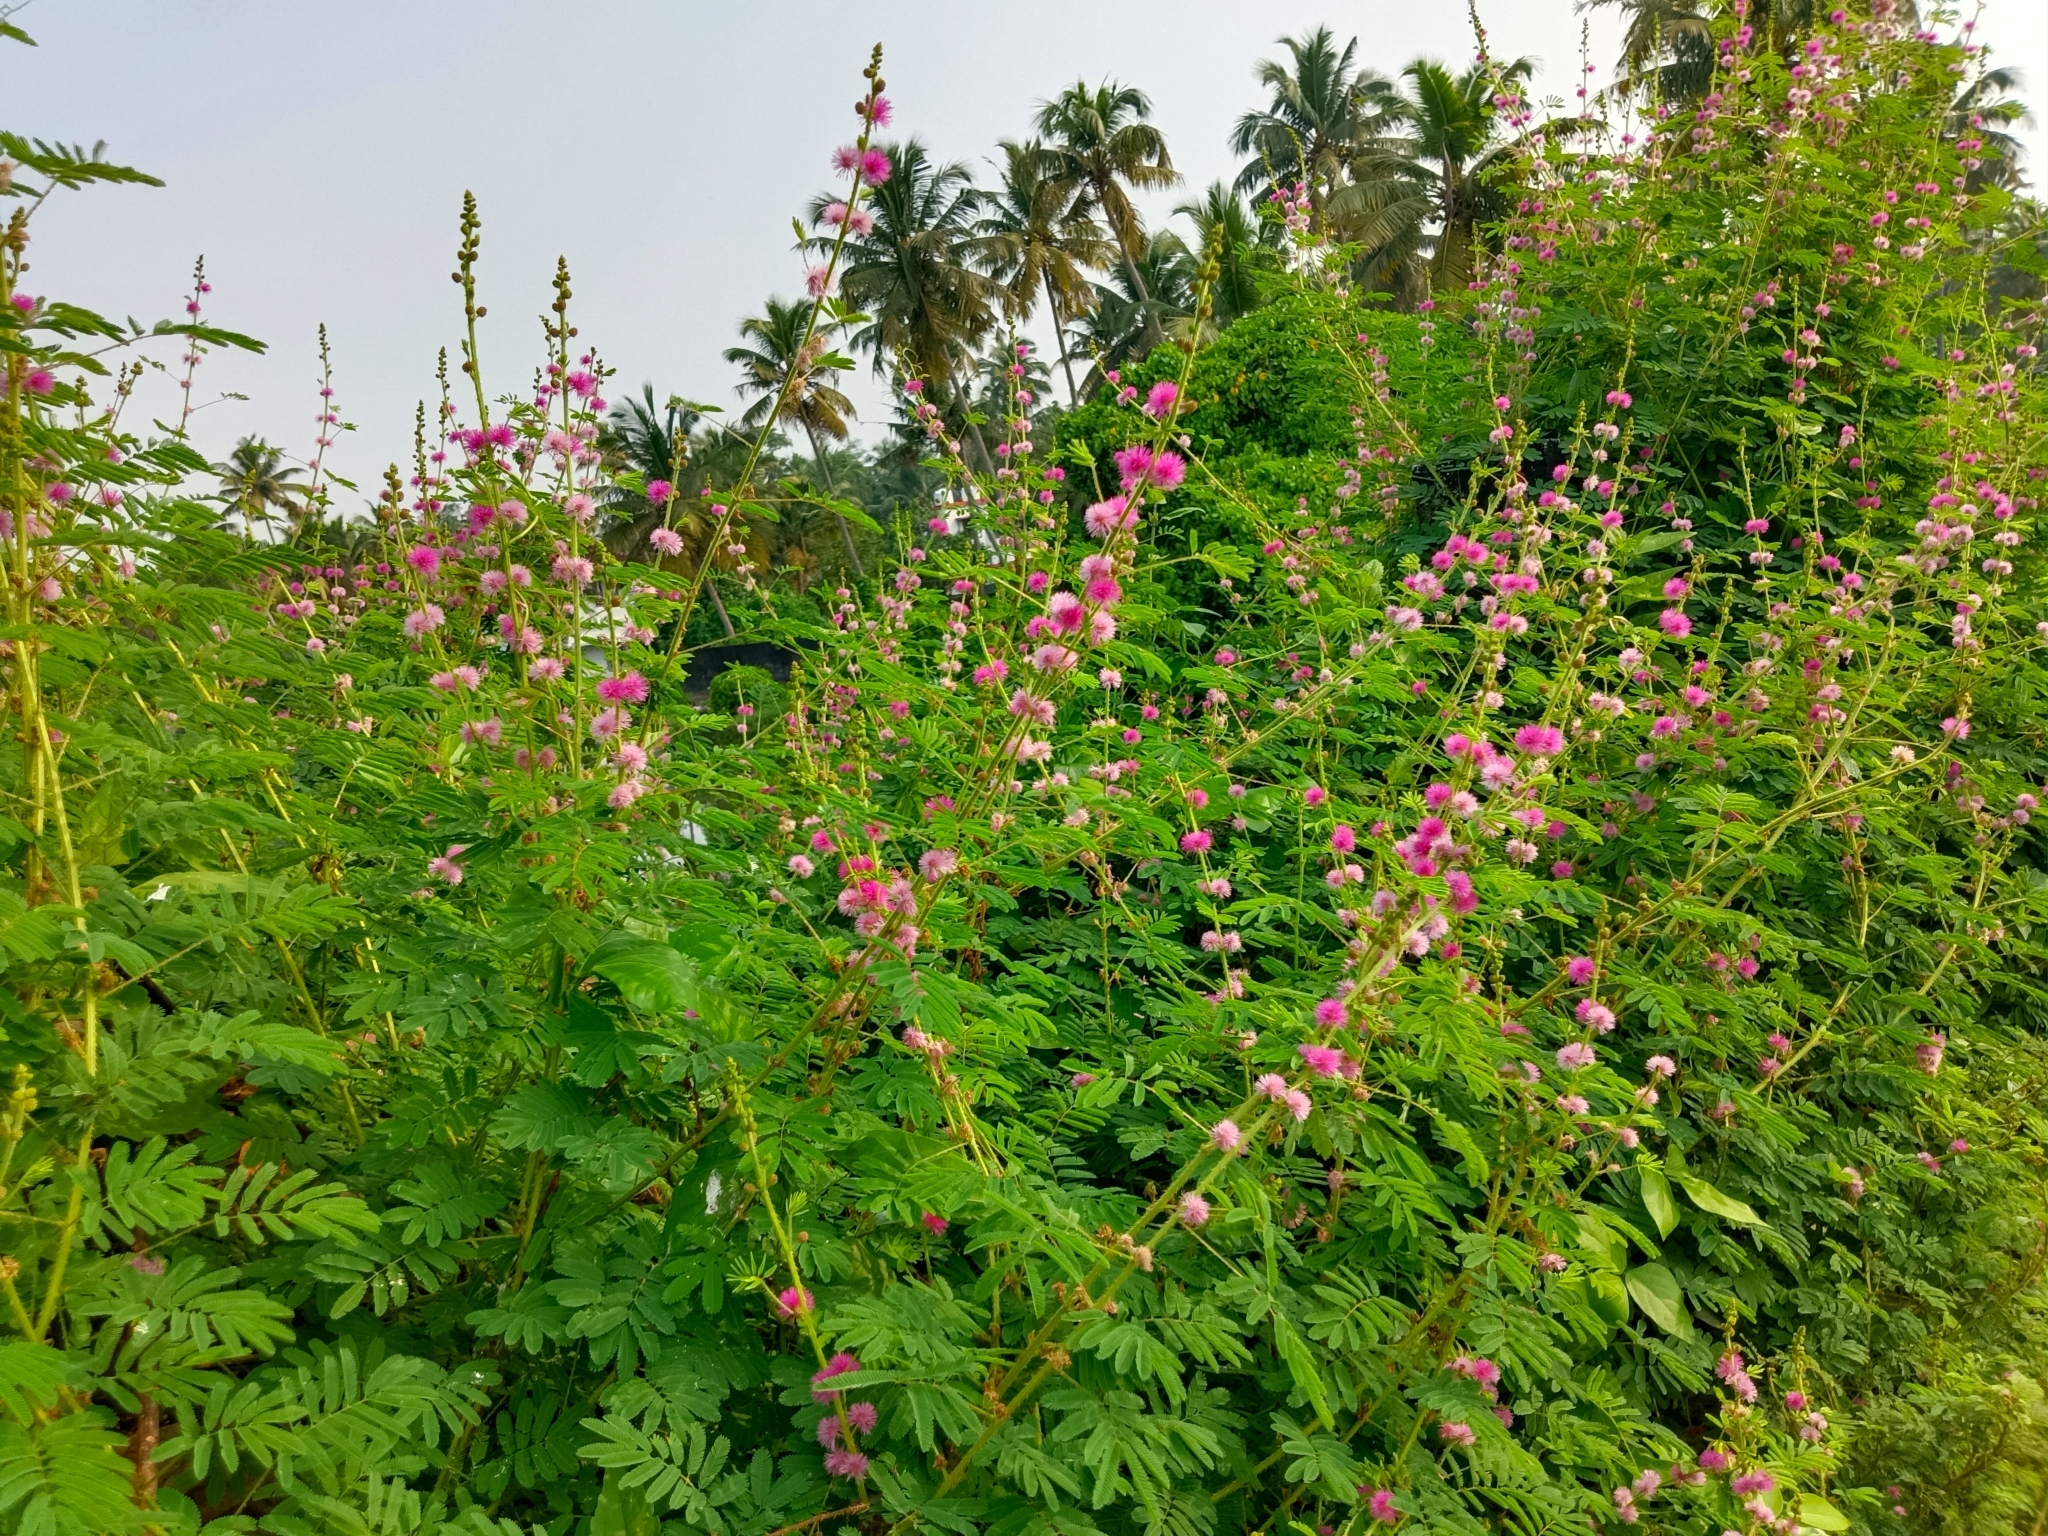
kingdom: Plantae
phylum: Tracheophyta
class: Magnoliopsida
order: Fabales
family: Fabaceae
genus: Mimosa
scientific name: Mimosa diplotricha
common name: Giant sensitive-plant
